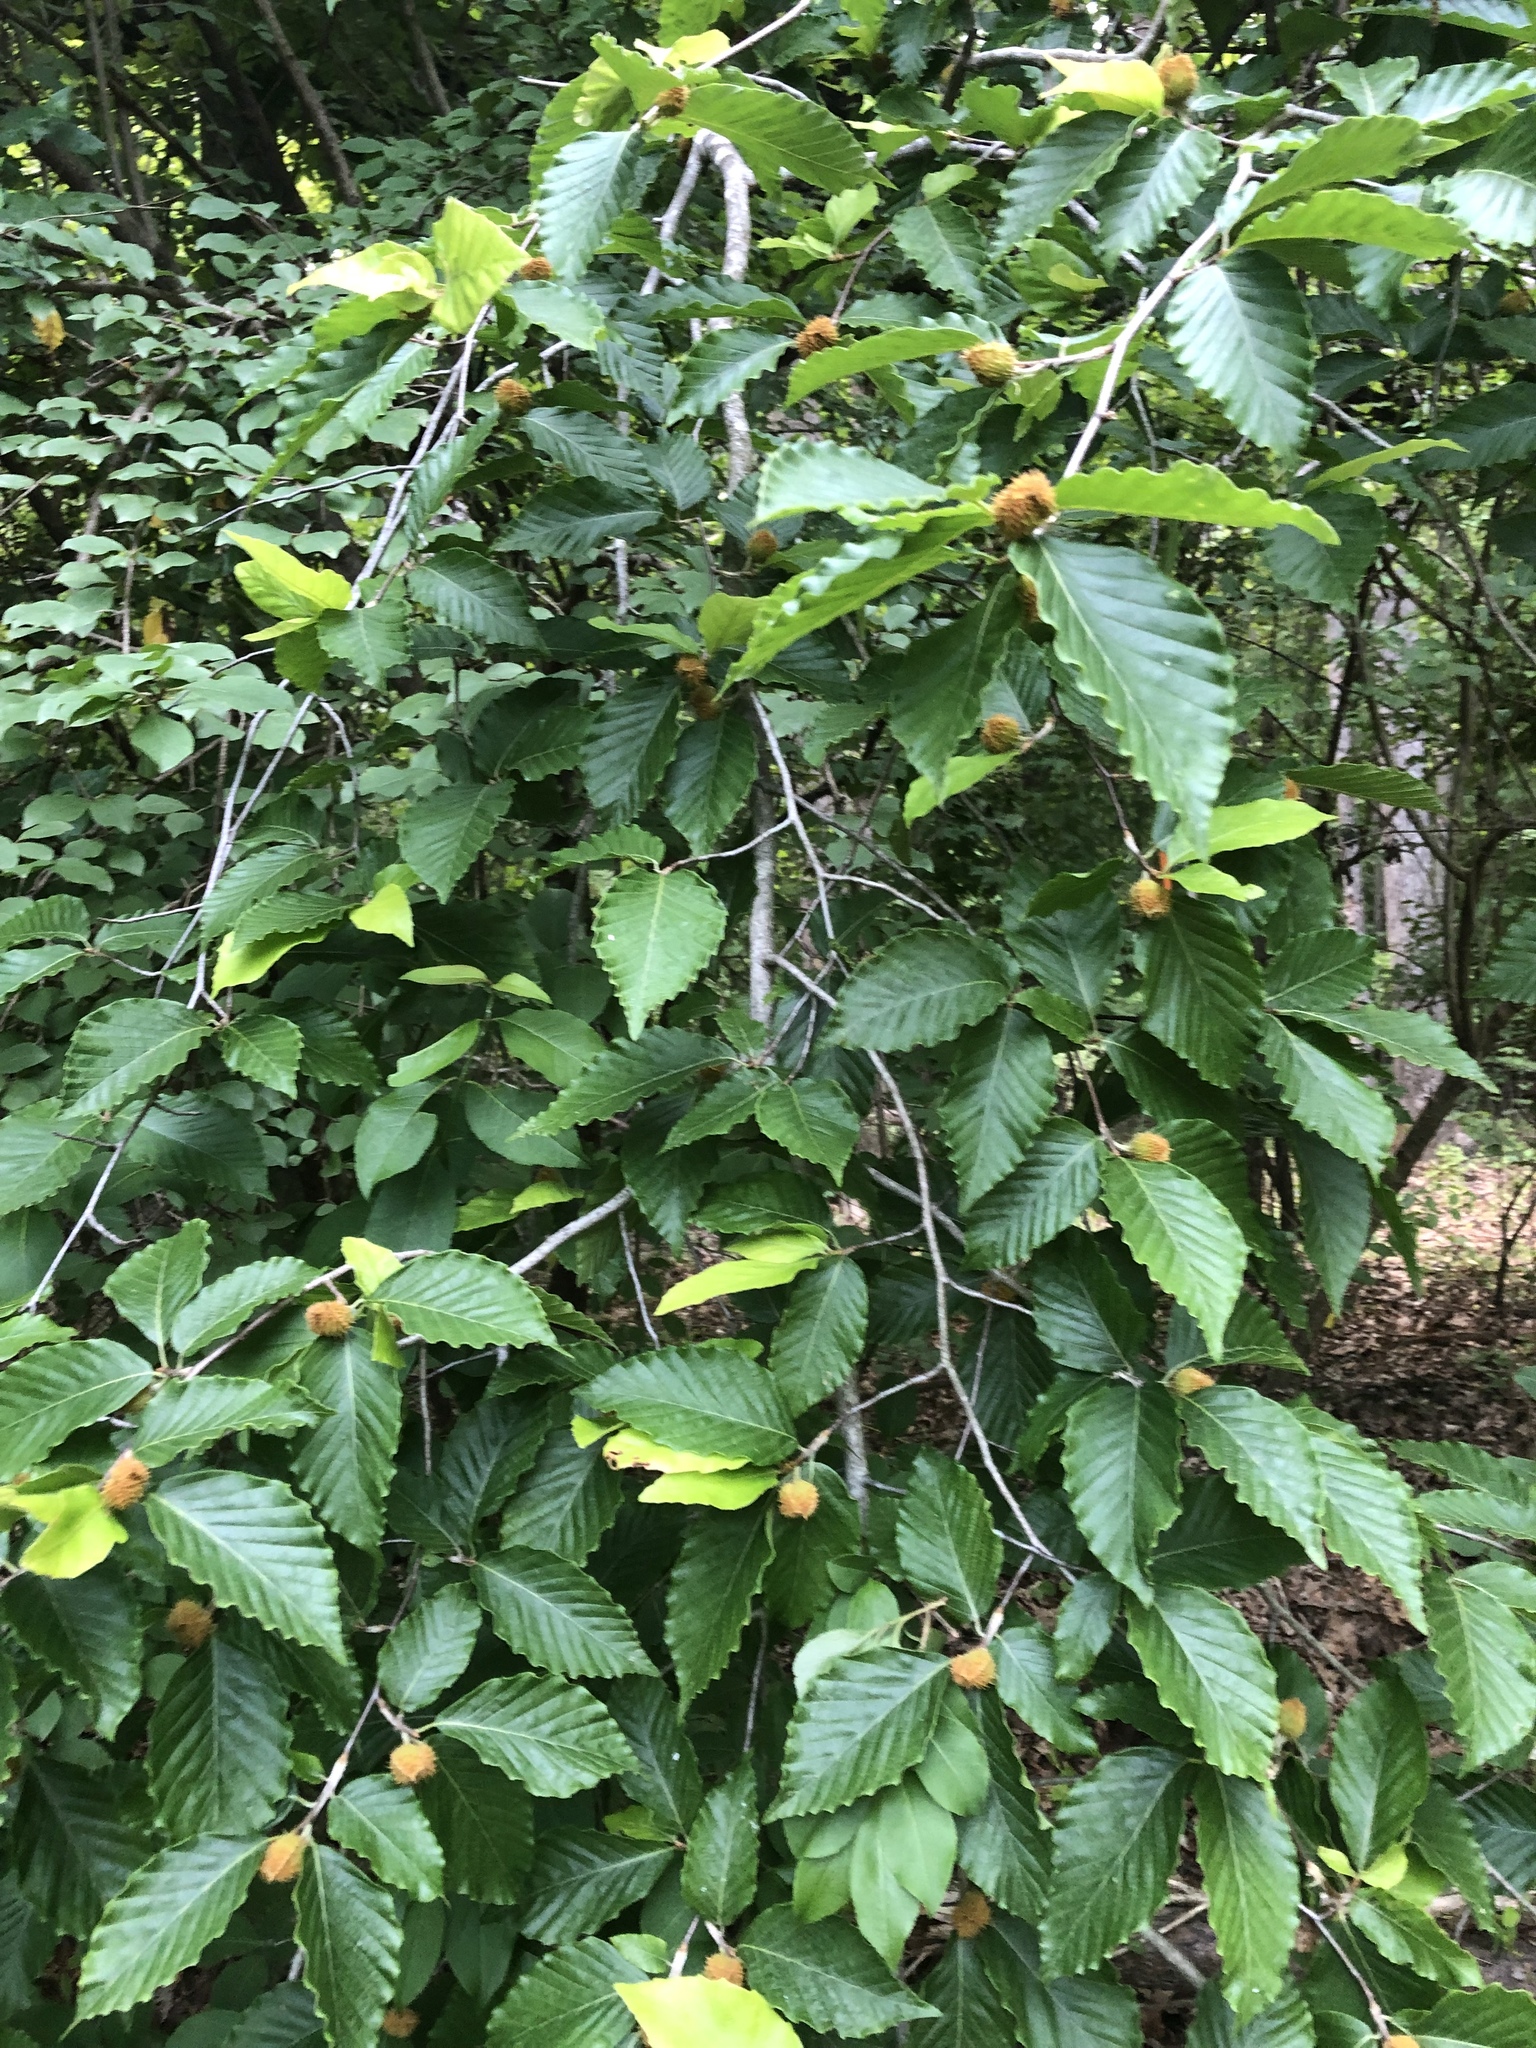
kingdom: Plantae
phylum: Tracheophyta
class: Magnoliopsida
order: Fagales
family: Fagaceae
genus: Fagus
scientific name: Fagus grandifolia
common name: American beech
